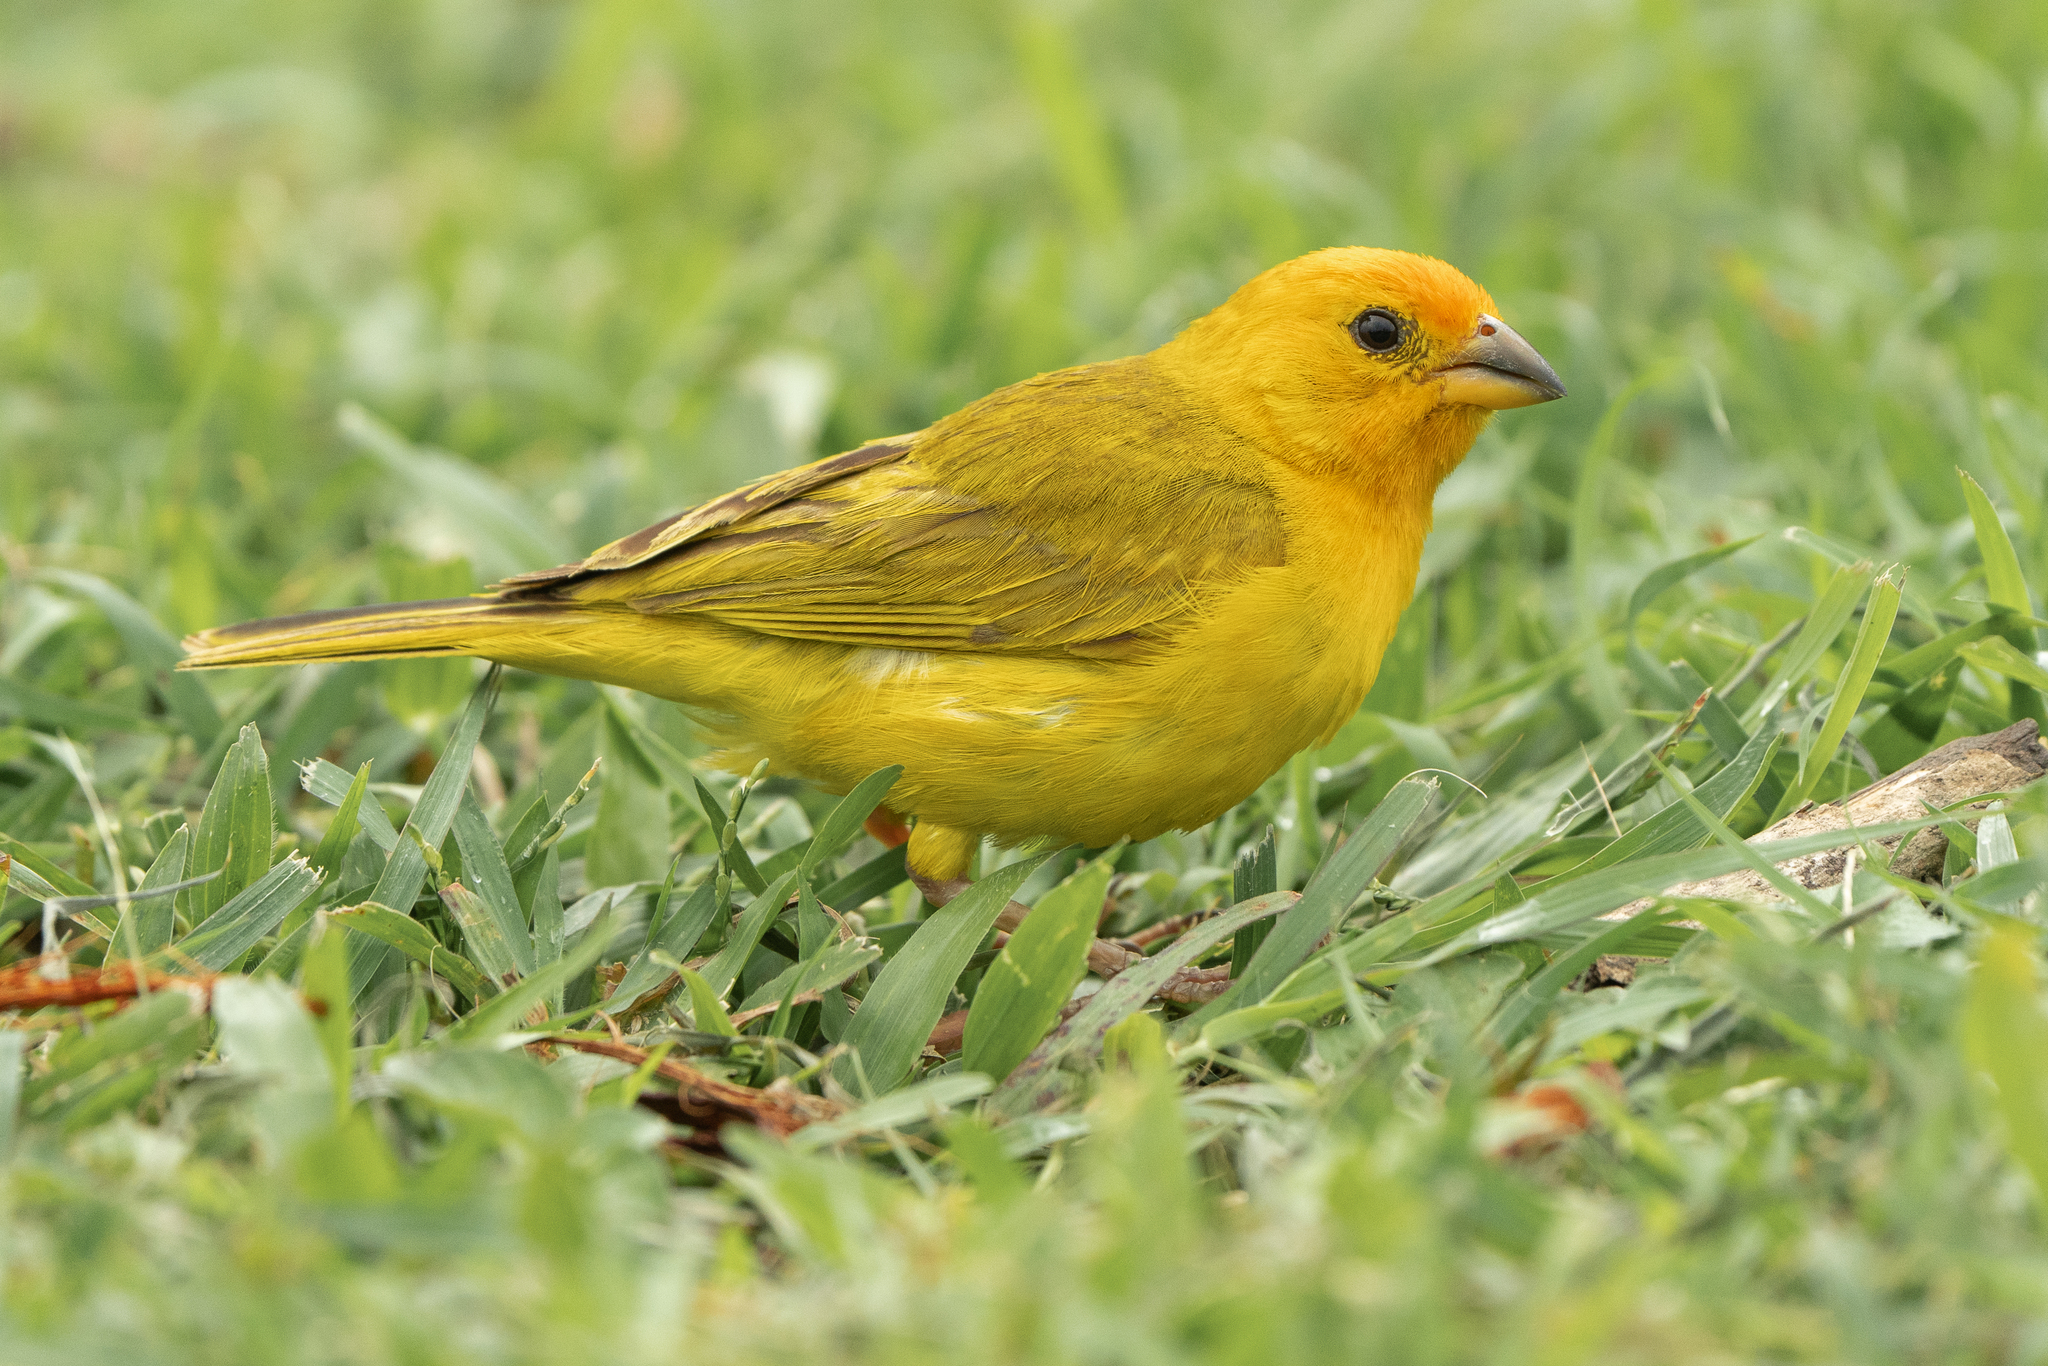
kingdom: Animalia
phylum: Chordata
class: Aves
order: Passeriformes
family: Thraupidae
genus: Sicalis
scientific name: Sicalis flaveola
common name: Saffron finch
